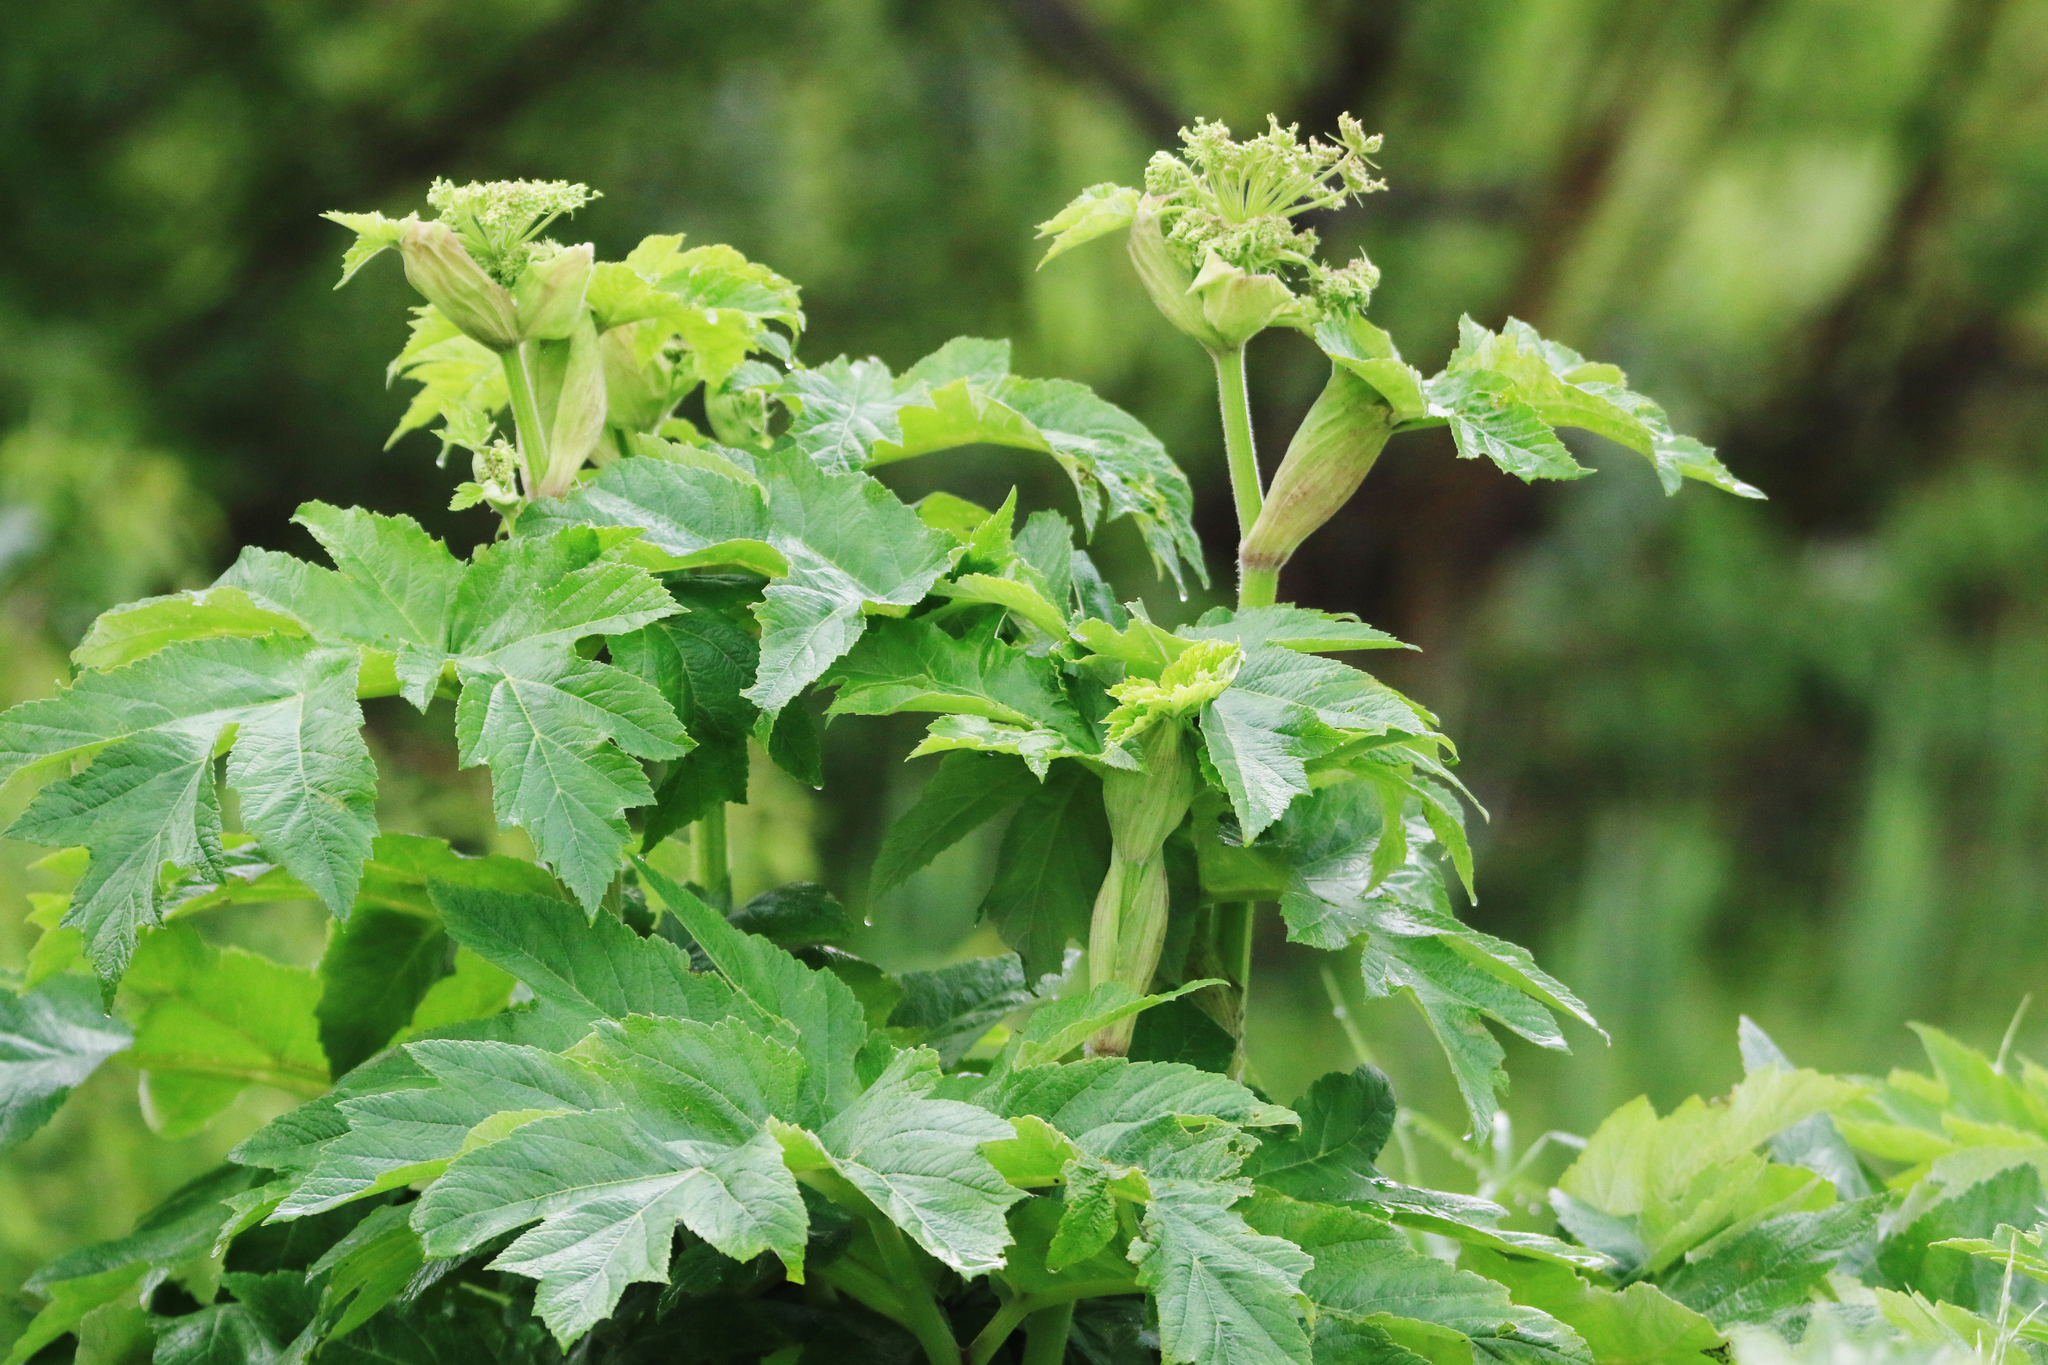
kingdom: Plantae
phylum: Tracheophyta
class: Magnoliopsida
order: Apiales
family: Apiaceae
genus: Heracleum
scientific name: Heracleum dissectum
